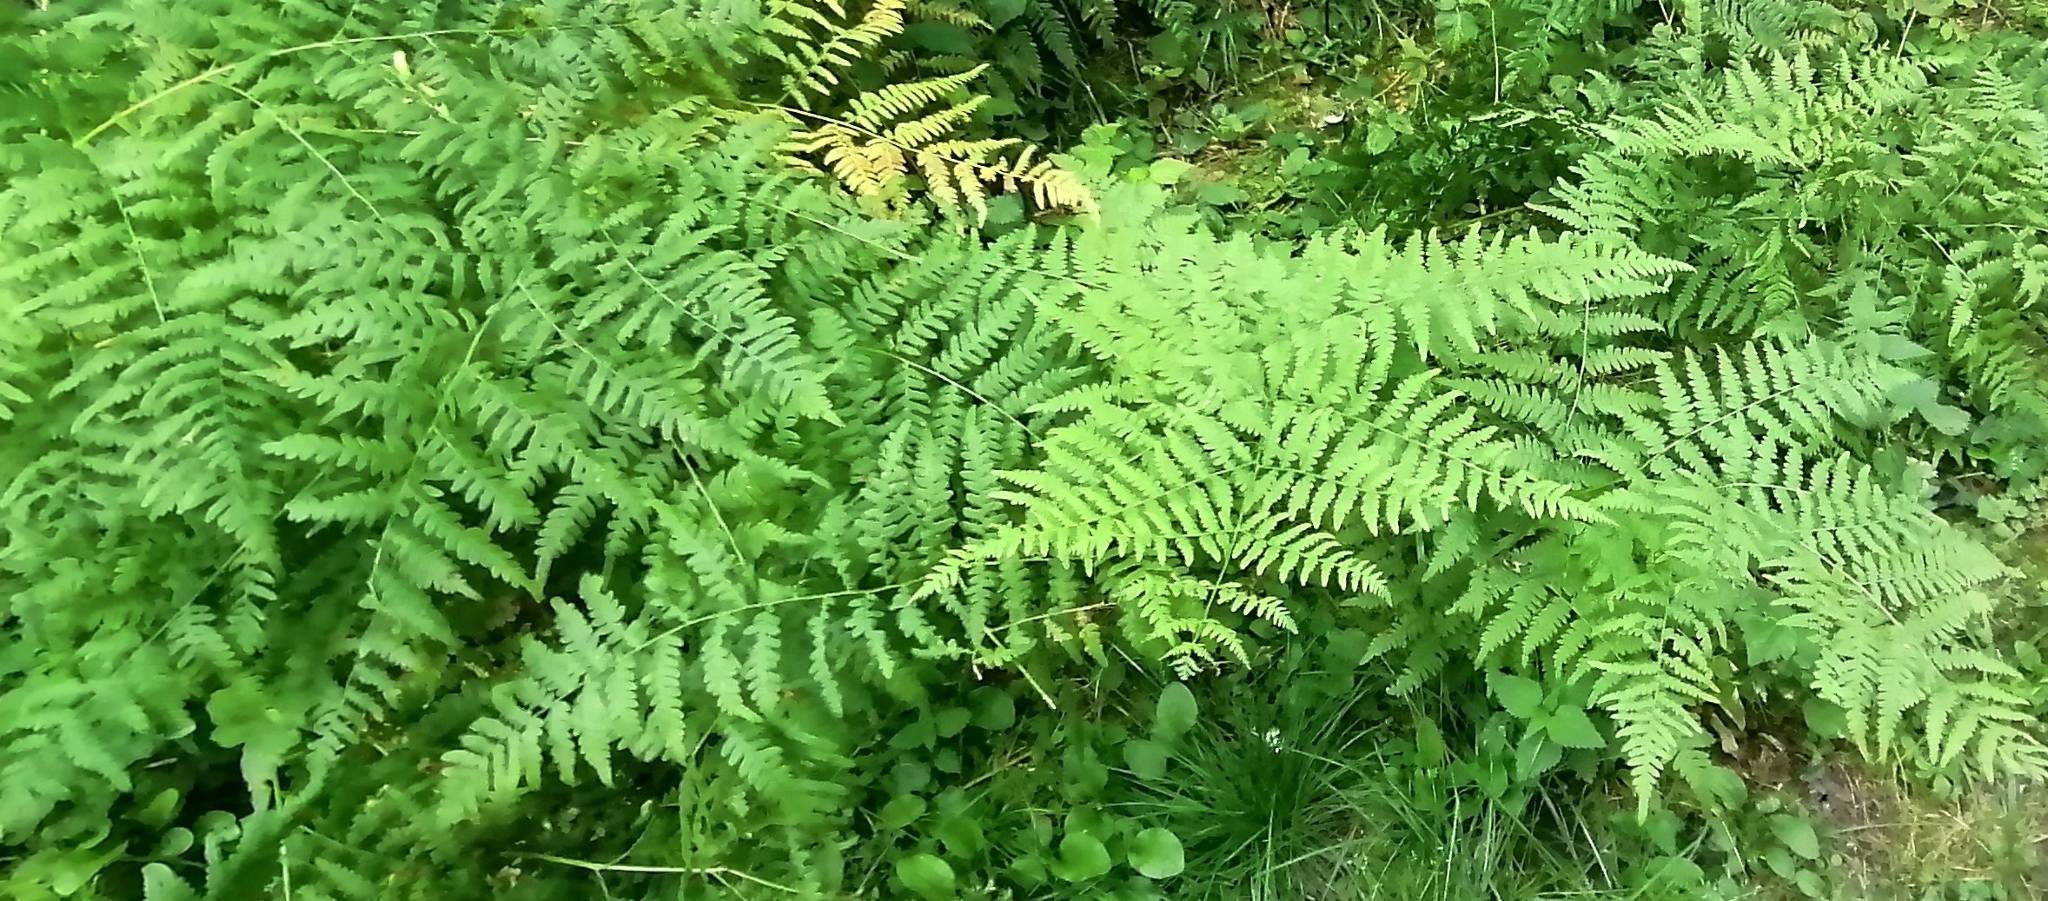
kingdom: Plantae
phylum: Tracheophyta
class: Polypodiopsida
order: Polypodiales
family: Dennstaedtiaceae
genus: Pteridium
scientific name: Pteridium aquilinum
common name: Bracken
